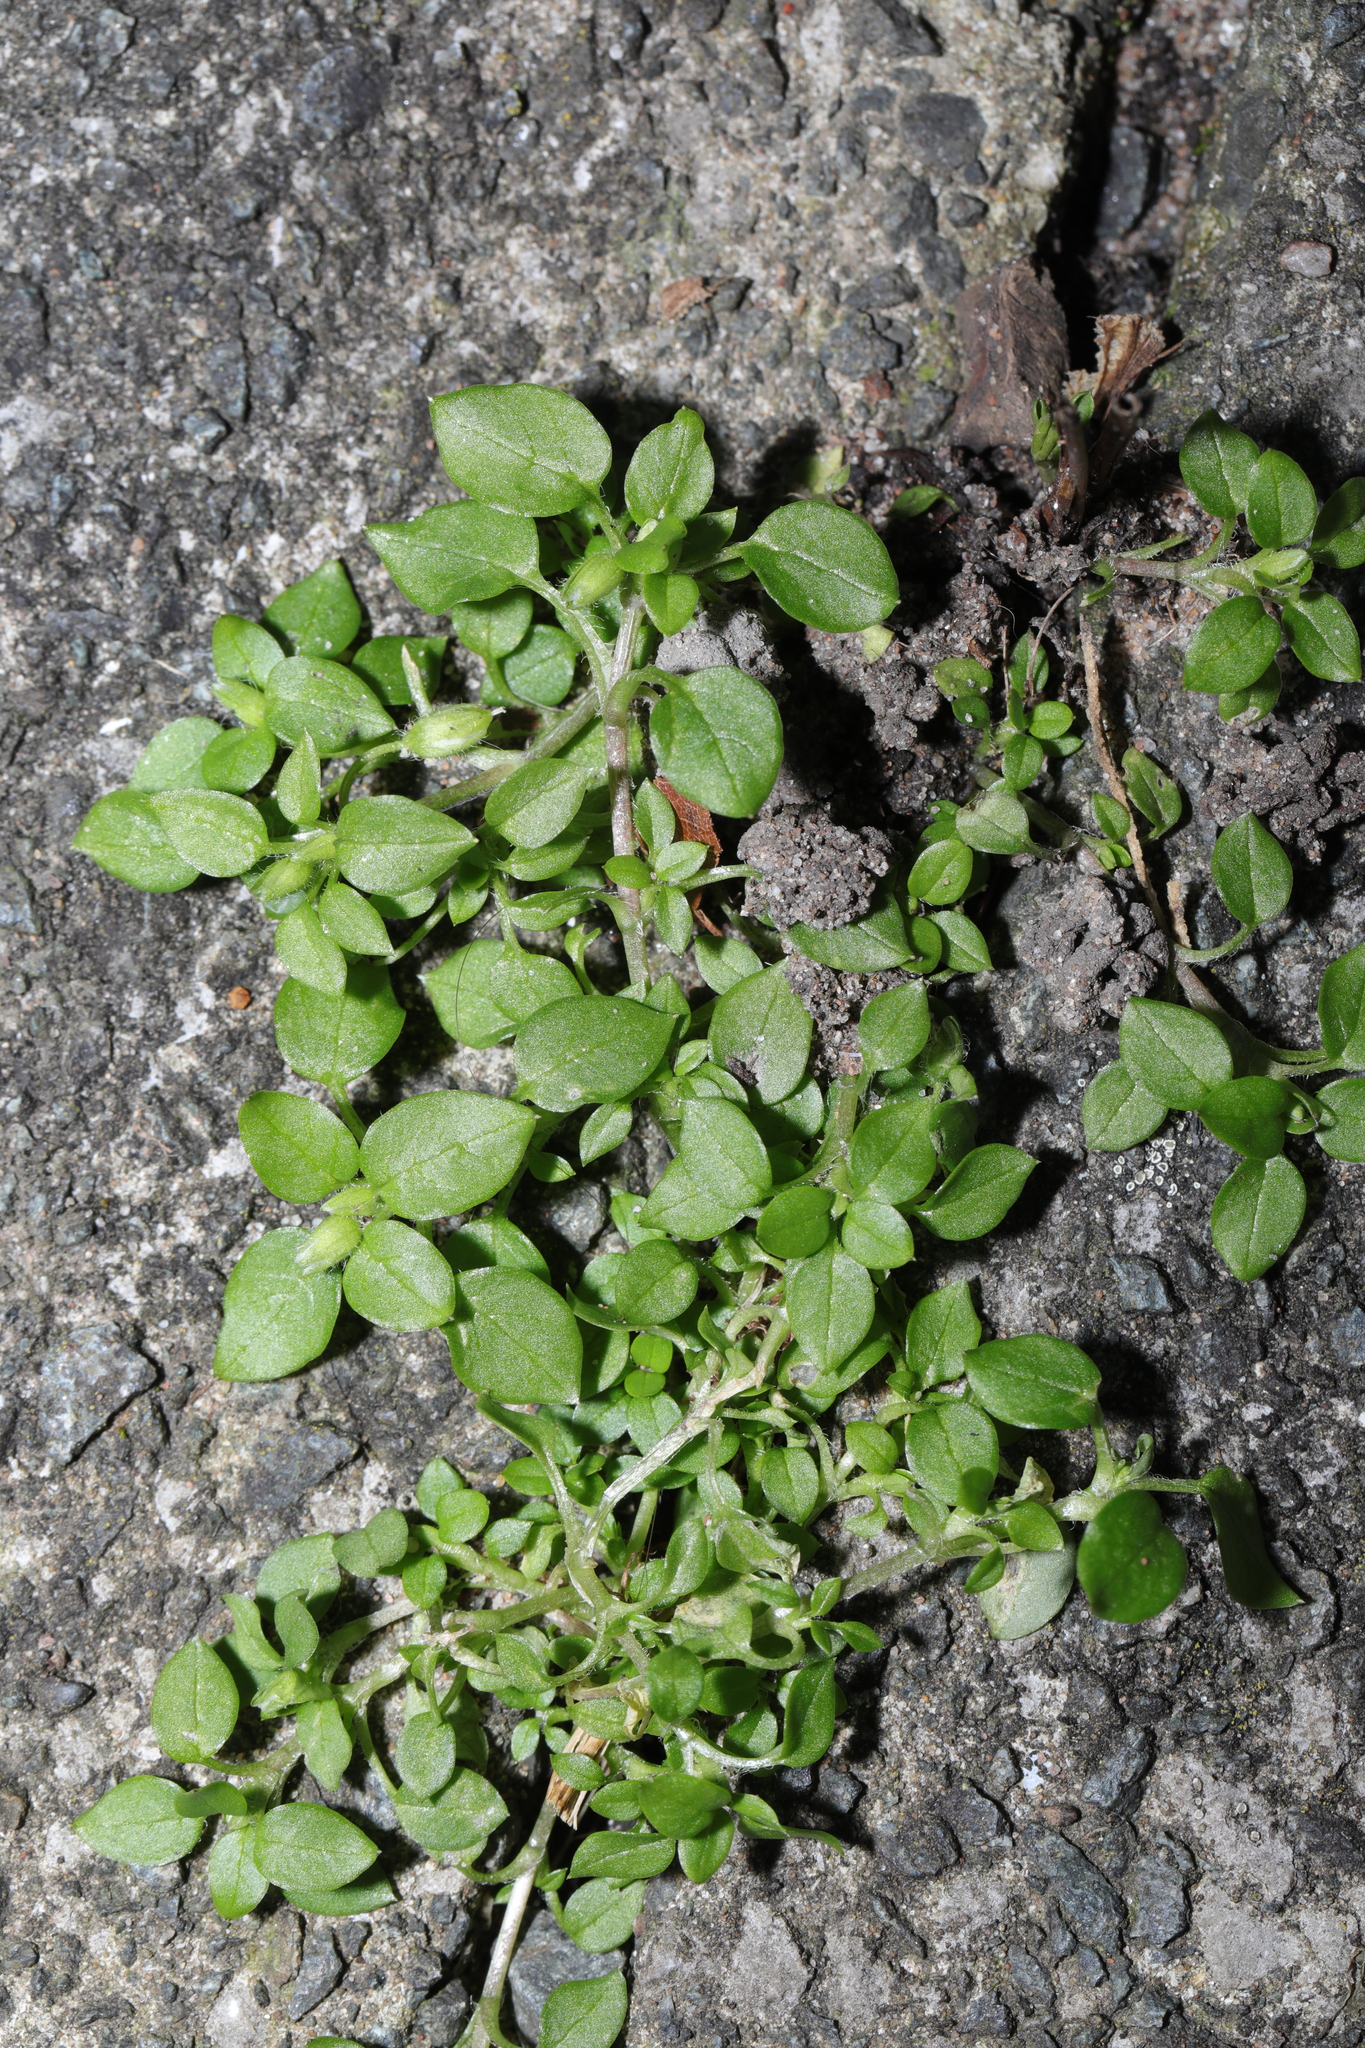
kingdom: Plantae
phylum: Tracheophyta
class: Magnoliopsida
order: Caryophyllales
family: Caryophyllaceae
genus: Stellaria
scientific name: Stellaria media
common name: Common chickweed
